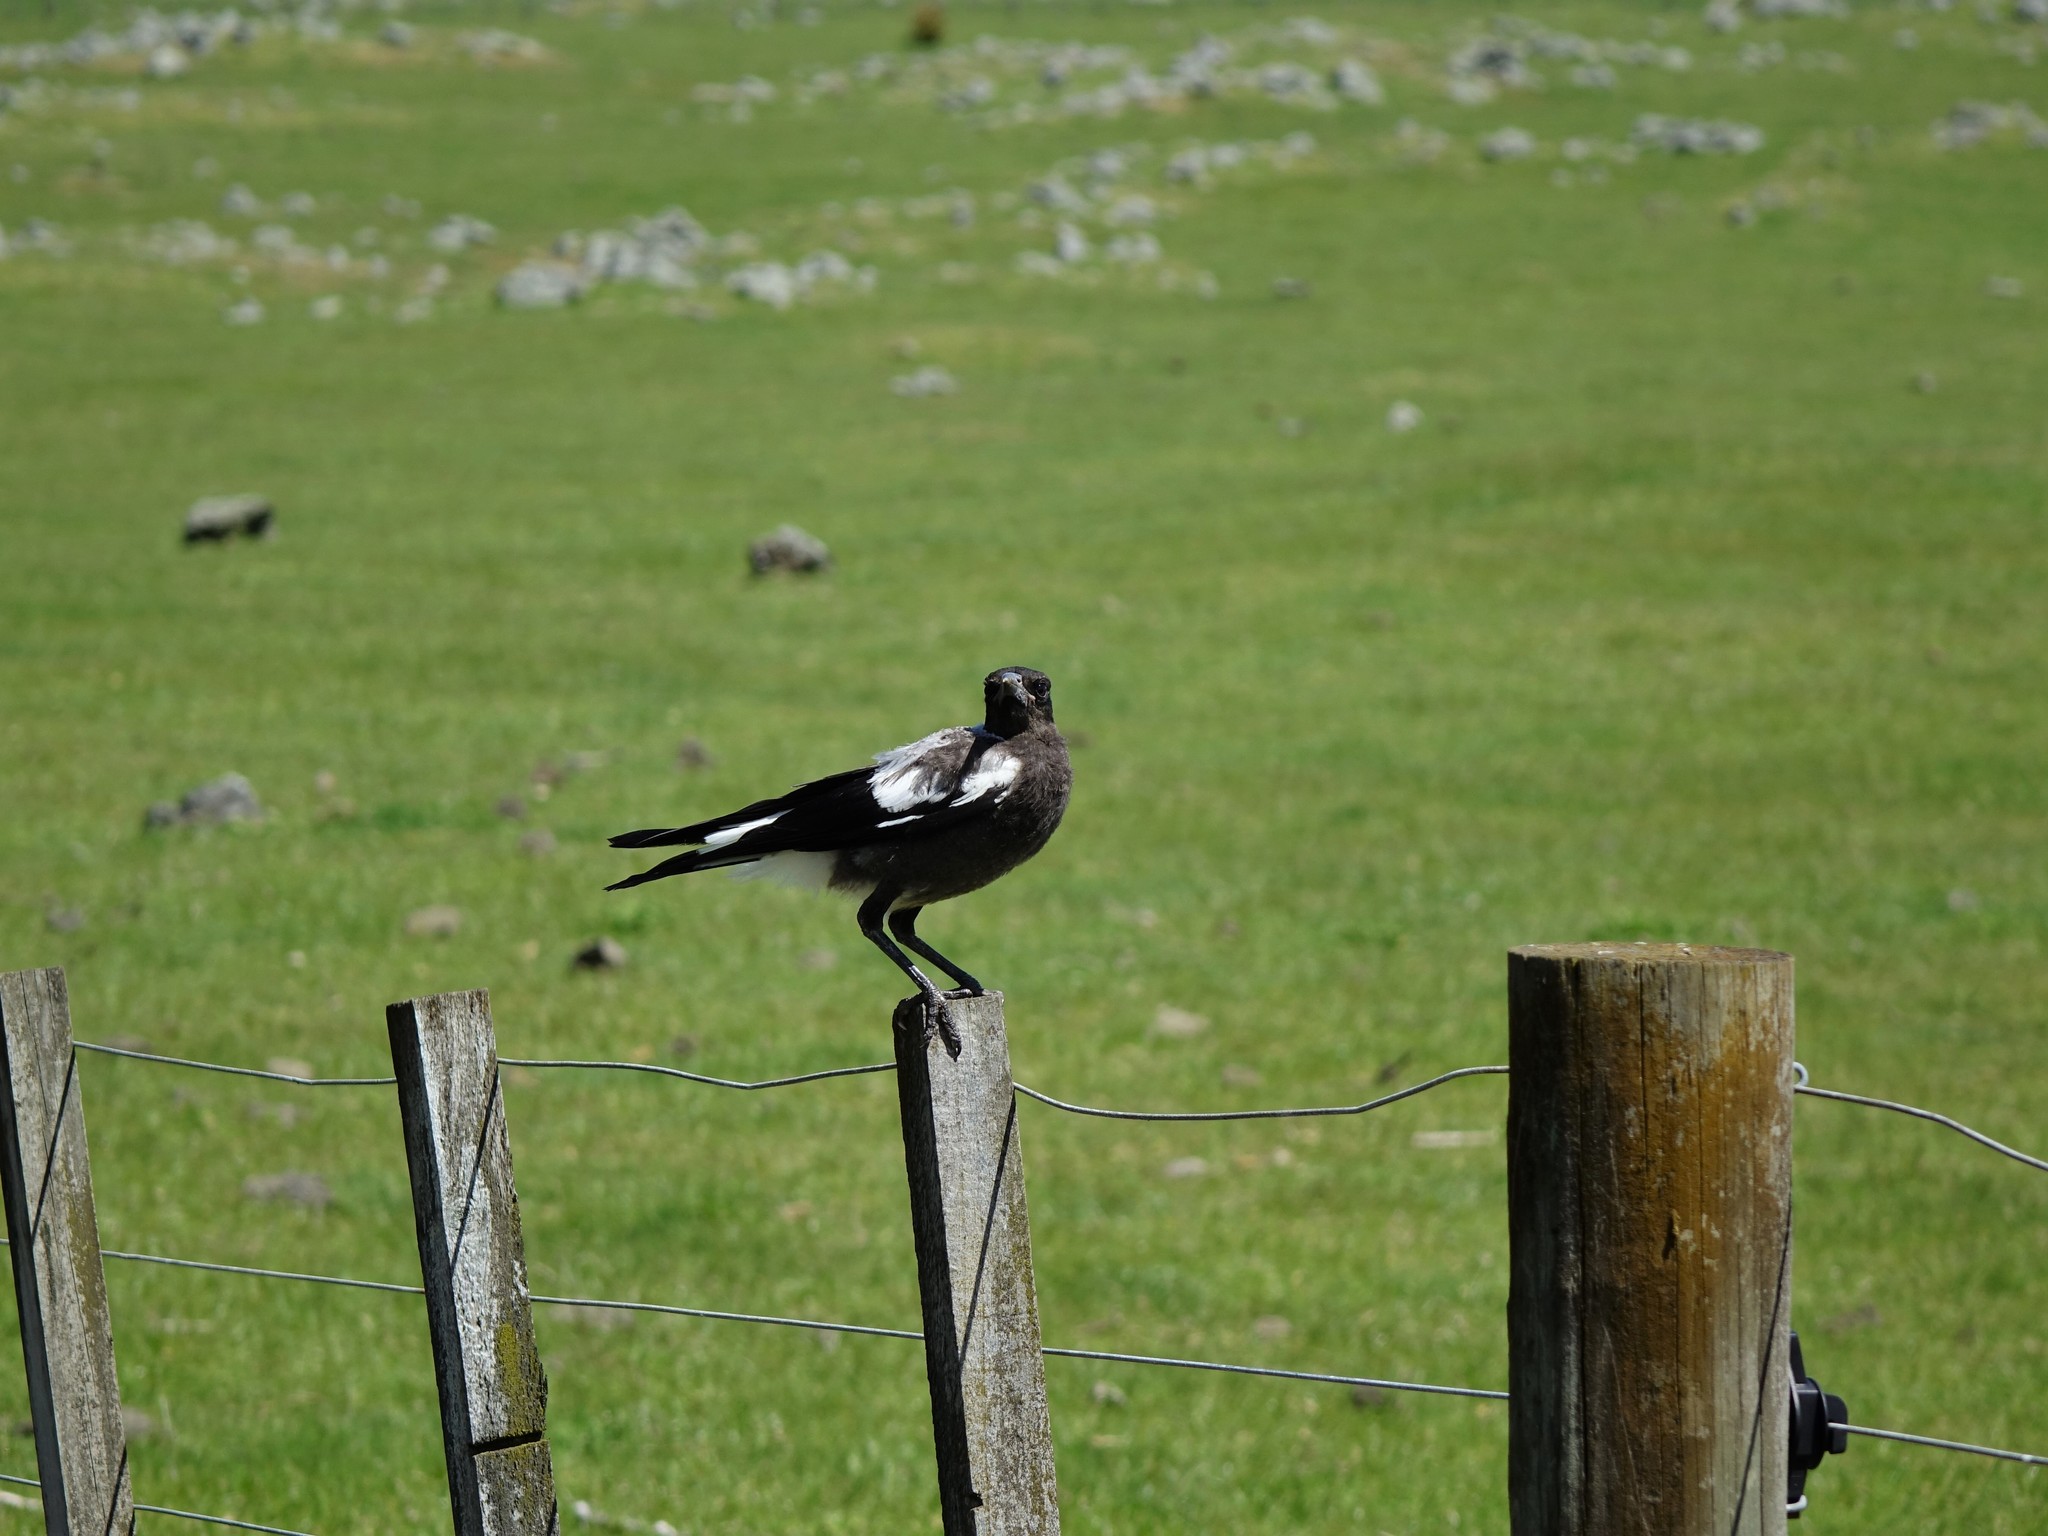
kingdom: Animalia
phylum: Chordata
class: Aves
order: Passeriformes
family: Cracticidae
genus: Gymnorhina
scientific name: Gymnorhina tibicen
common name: Australian magpie
